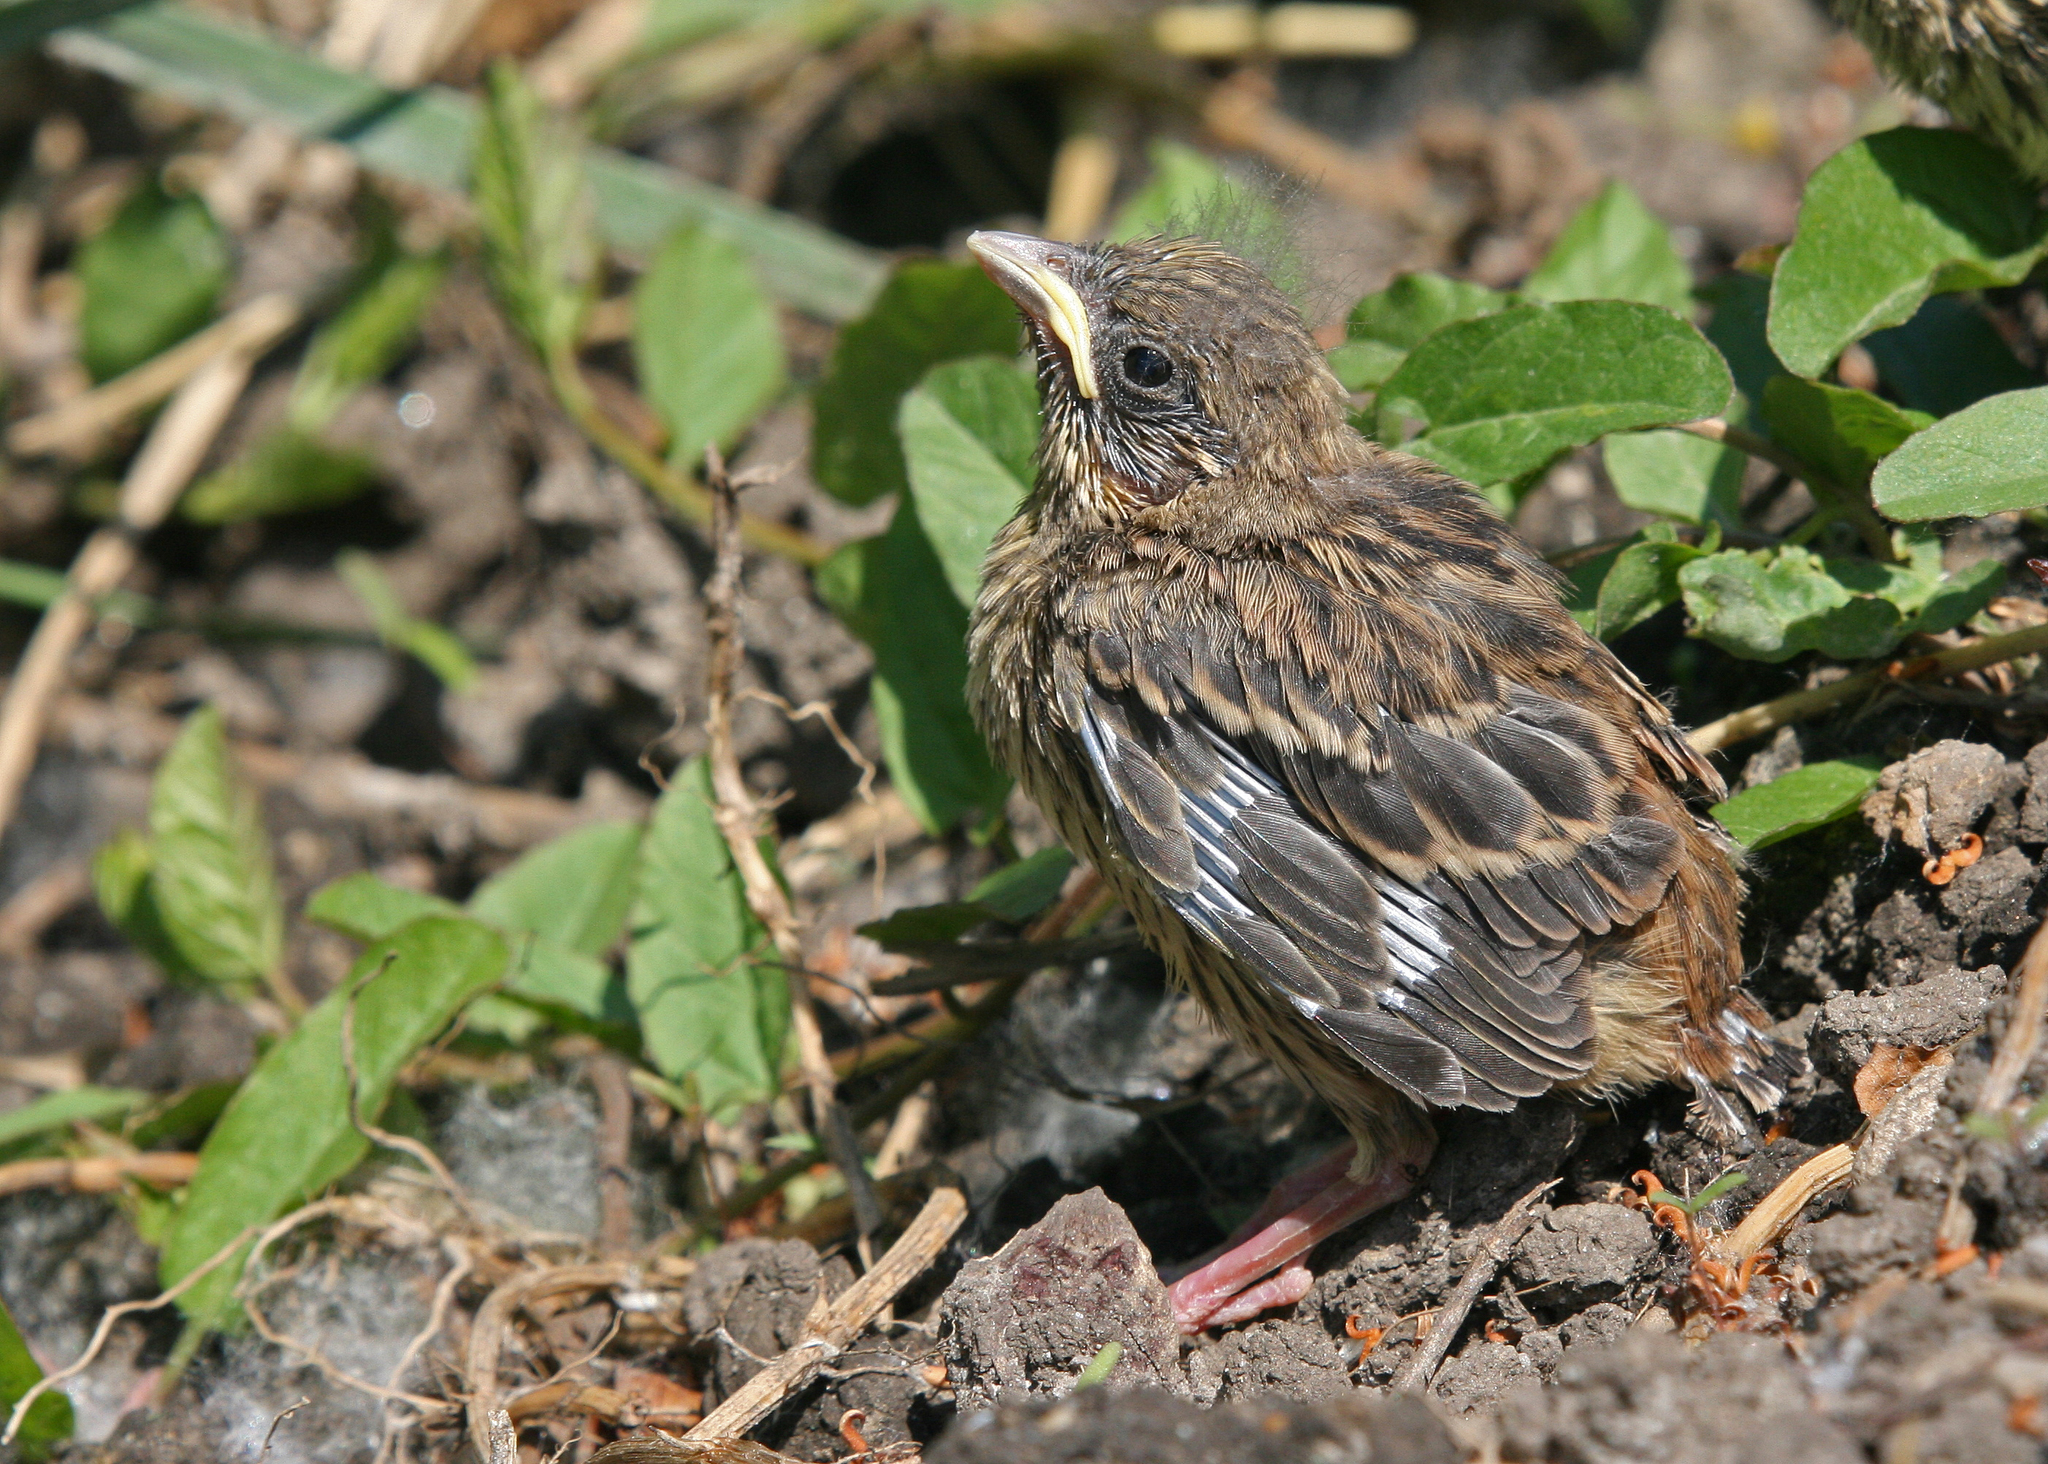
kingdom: Animalia
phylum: Chordata
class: Aves
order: Passeriformes
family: Emberizidae
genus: Emberiza
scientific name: Emberiza citrinella
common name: Yellowhammer
